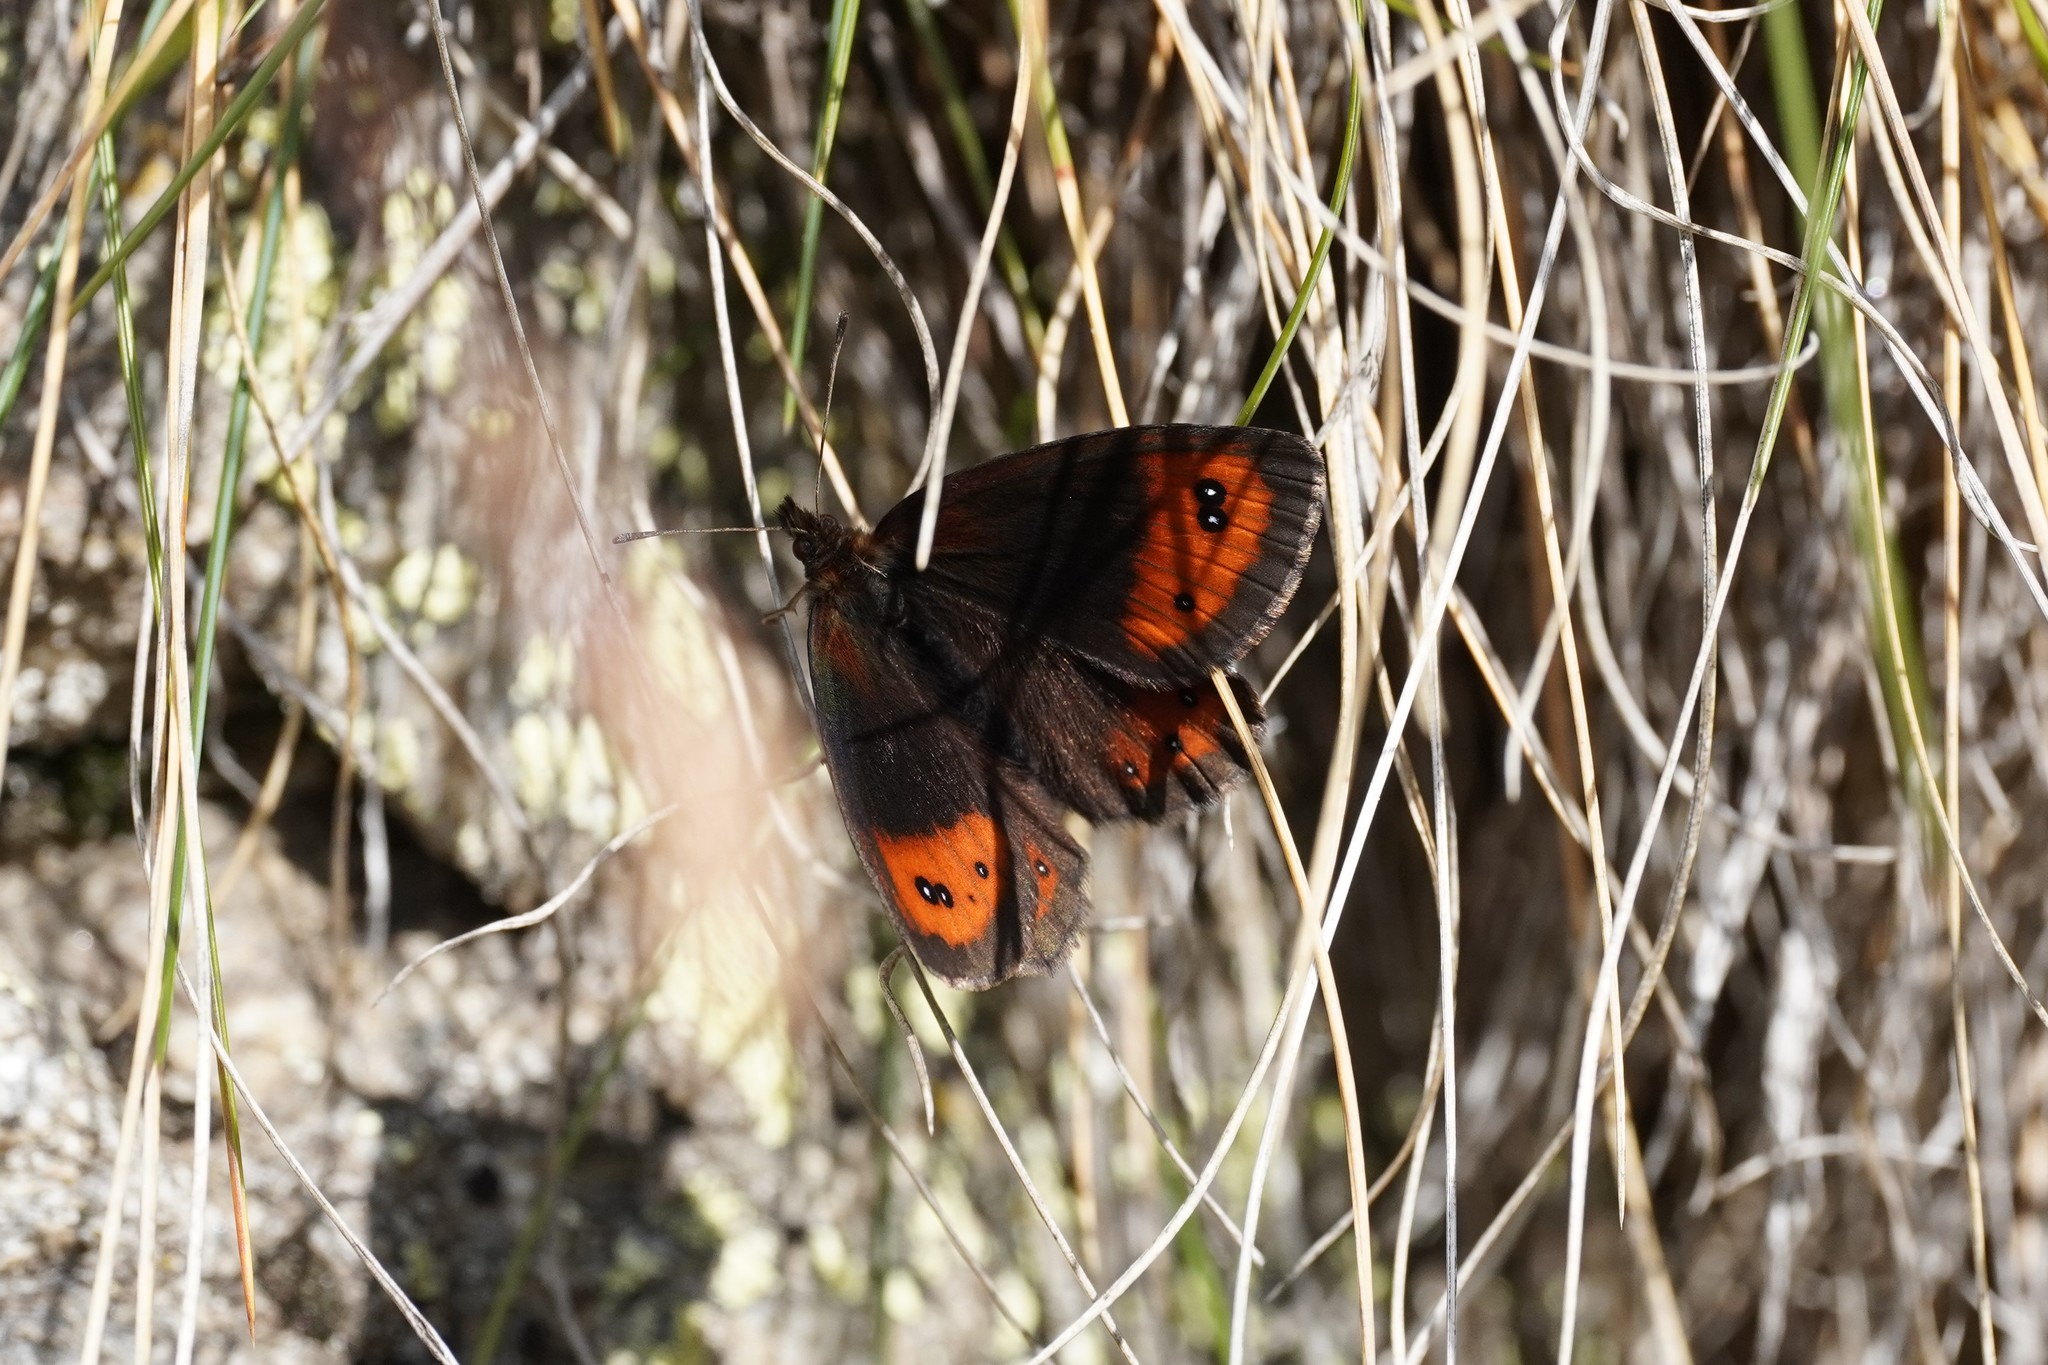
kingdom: Animalia
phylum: Arthropoda
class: Insecta
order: Lepidoptera
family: Nymphalidae
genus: Erebia
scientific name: Erebia montanus
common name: Marbled ringlet
